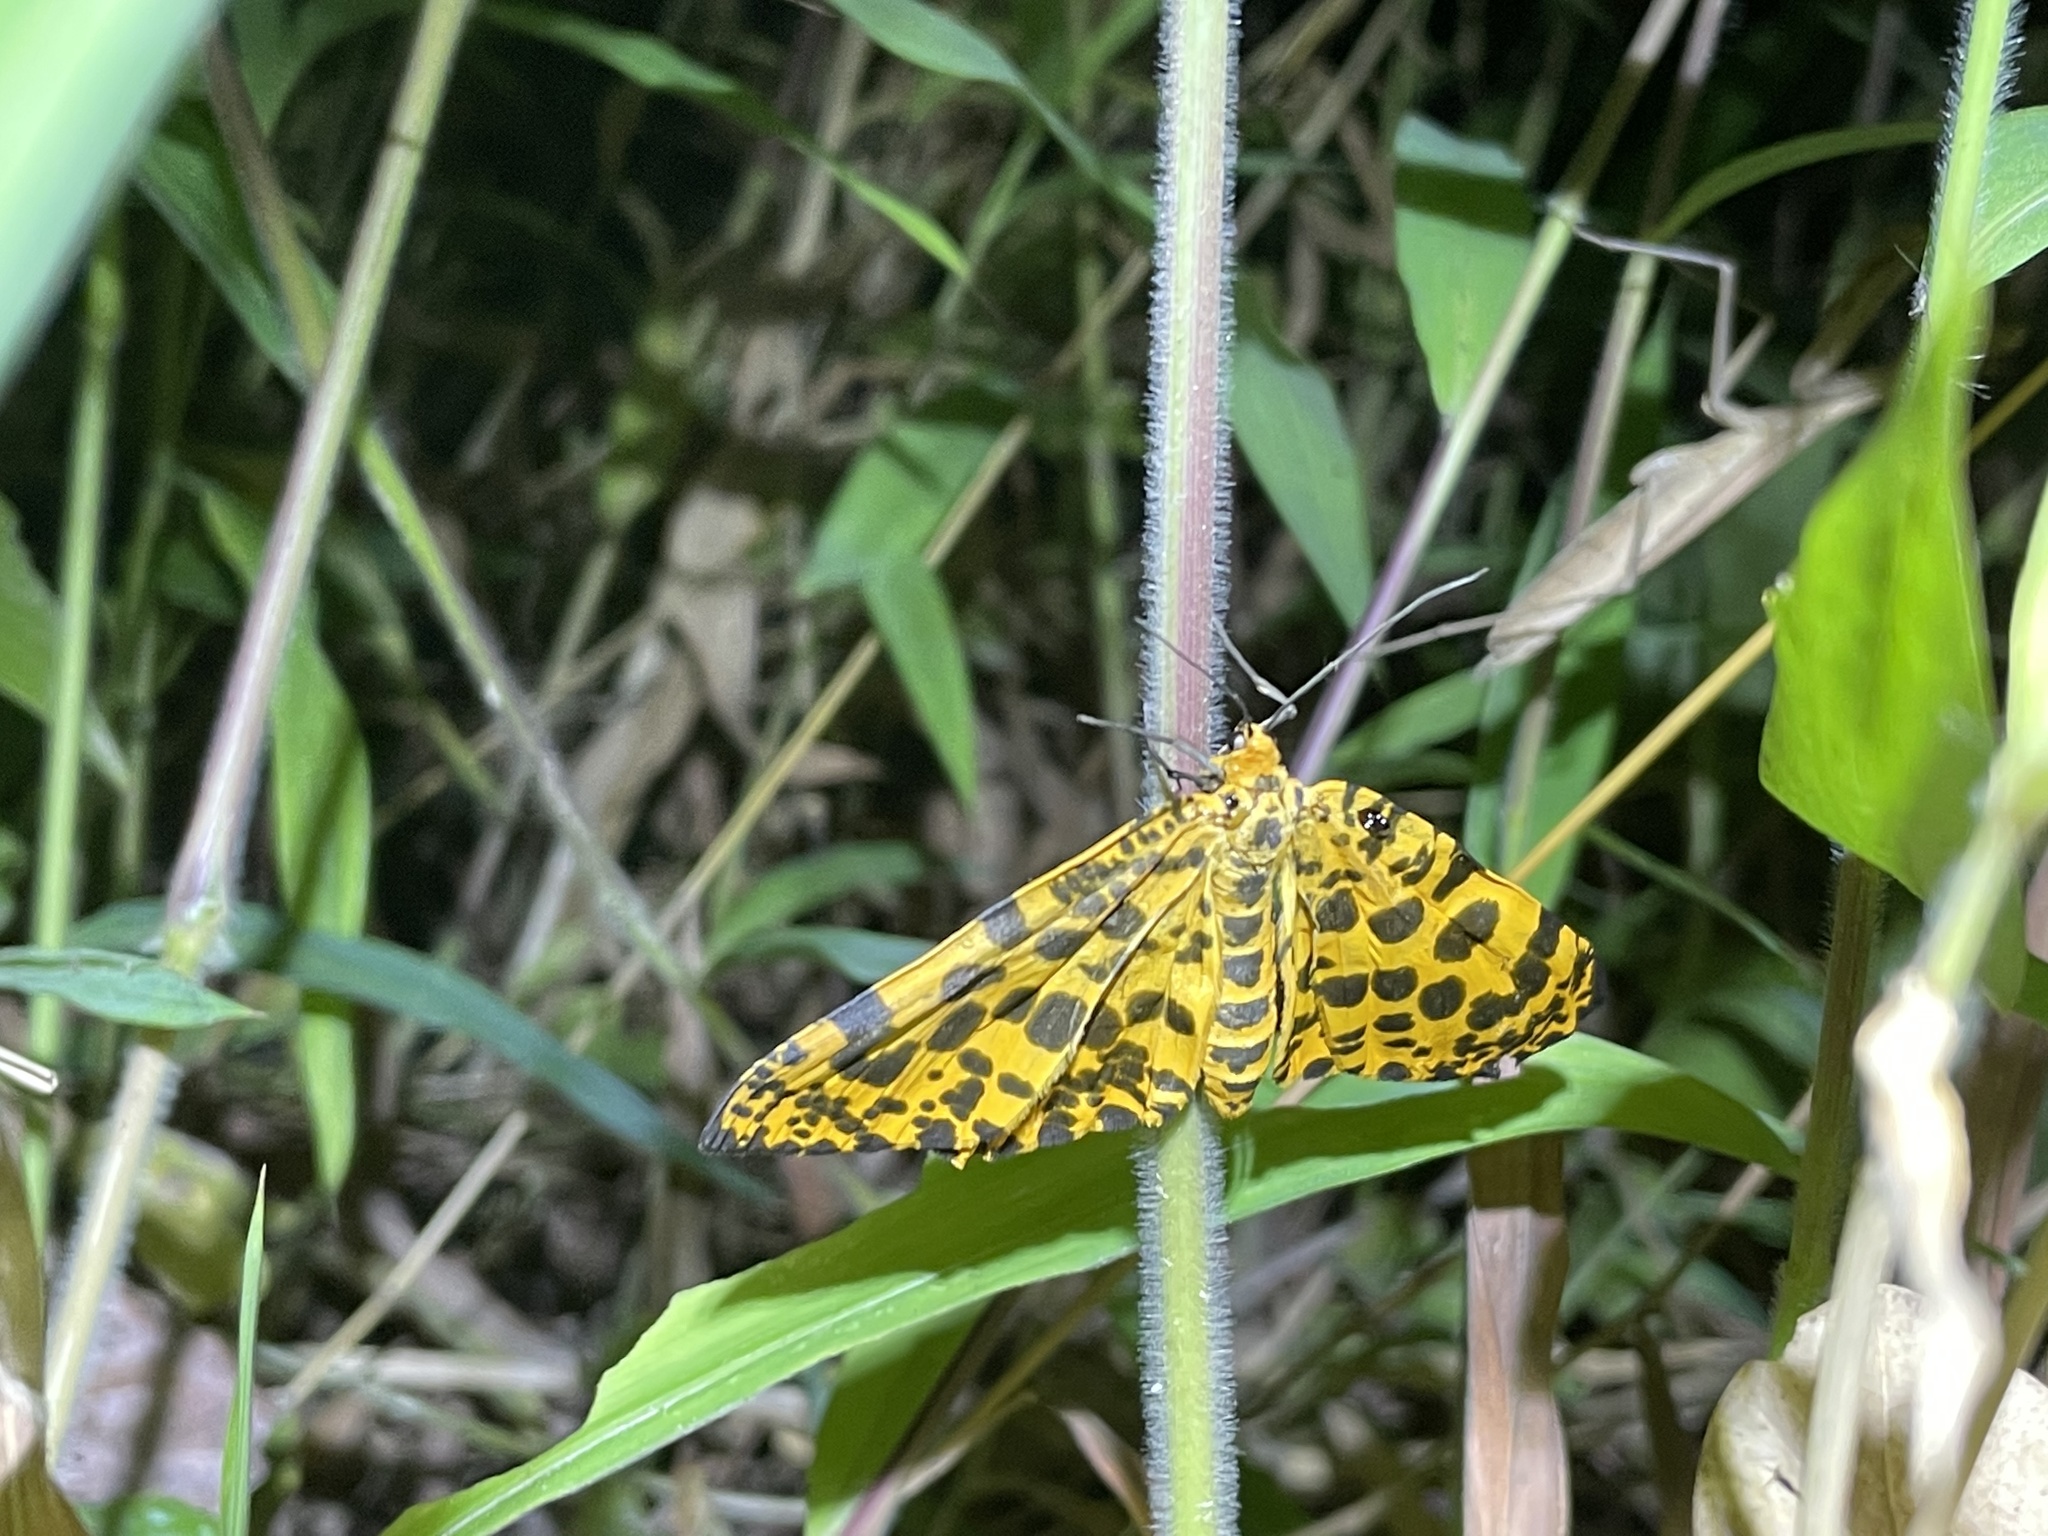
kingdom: Animalia
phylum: Arthropoda
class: Insecta
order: Lepidoptera
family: Geometridae
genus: Obeidia
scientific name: Obeidia Epobeidia tigrata
